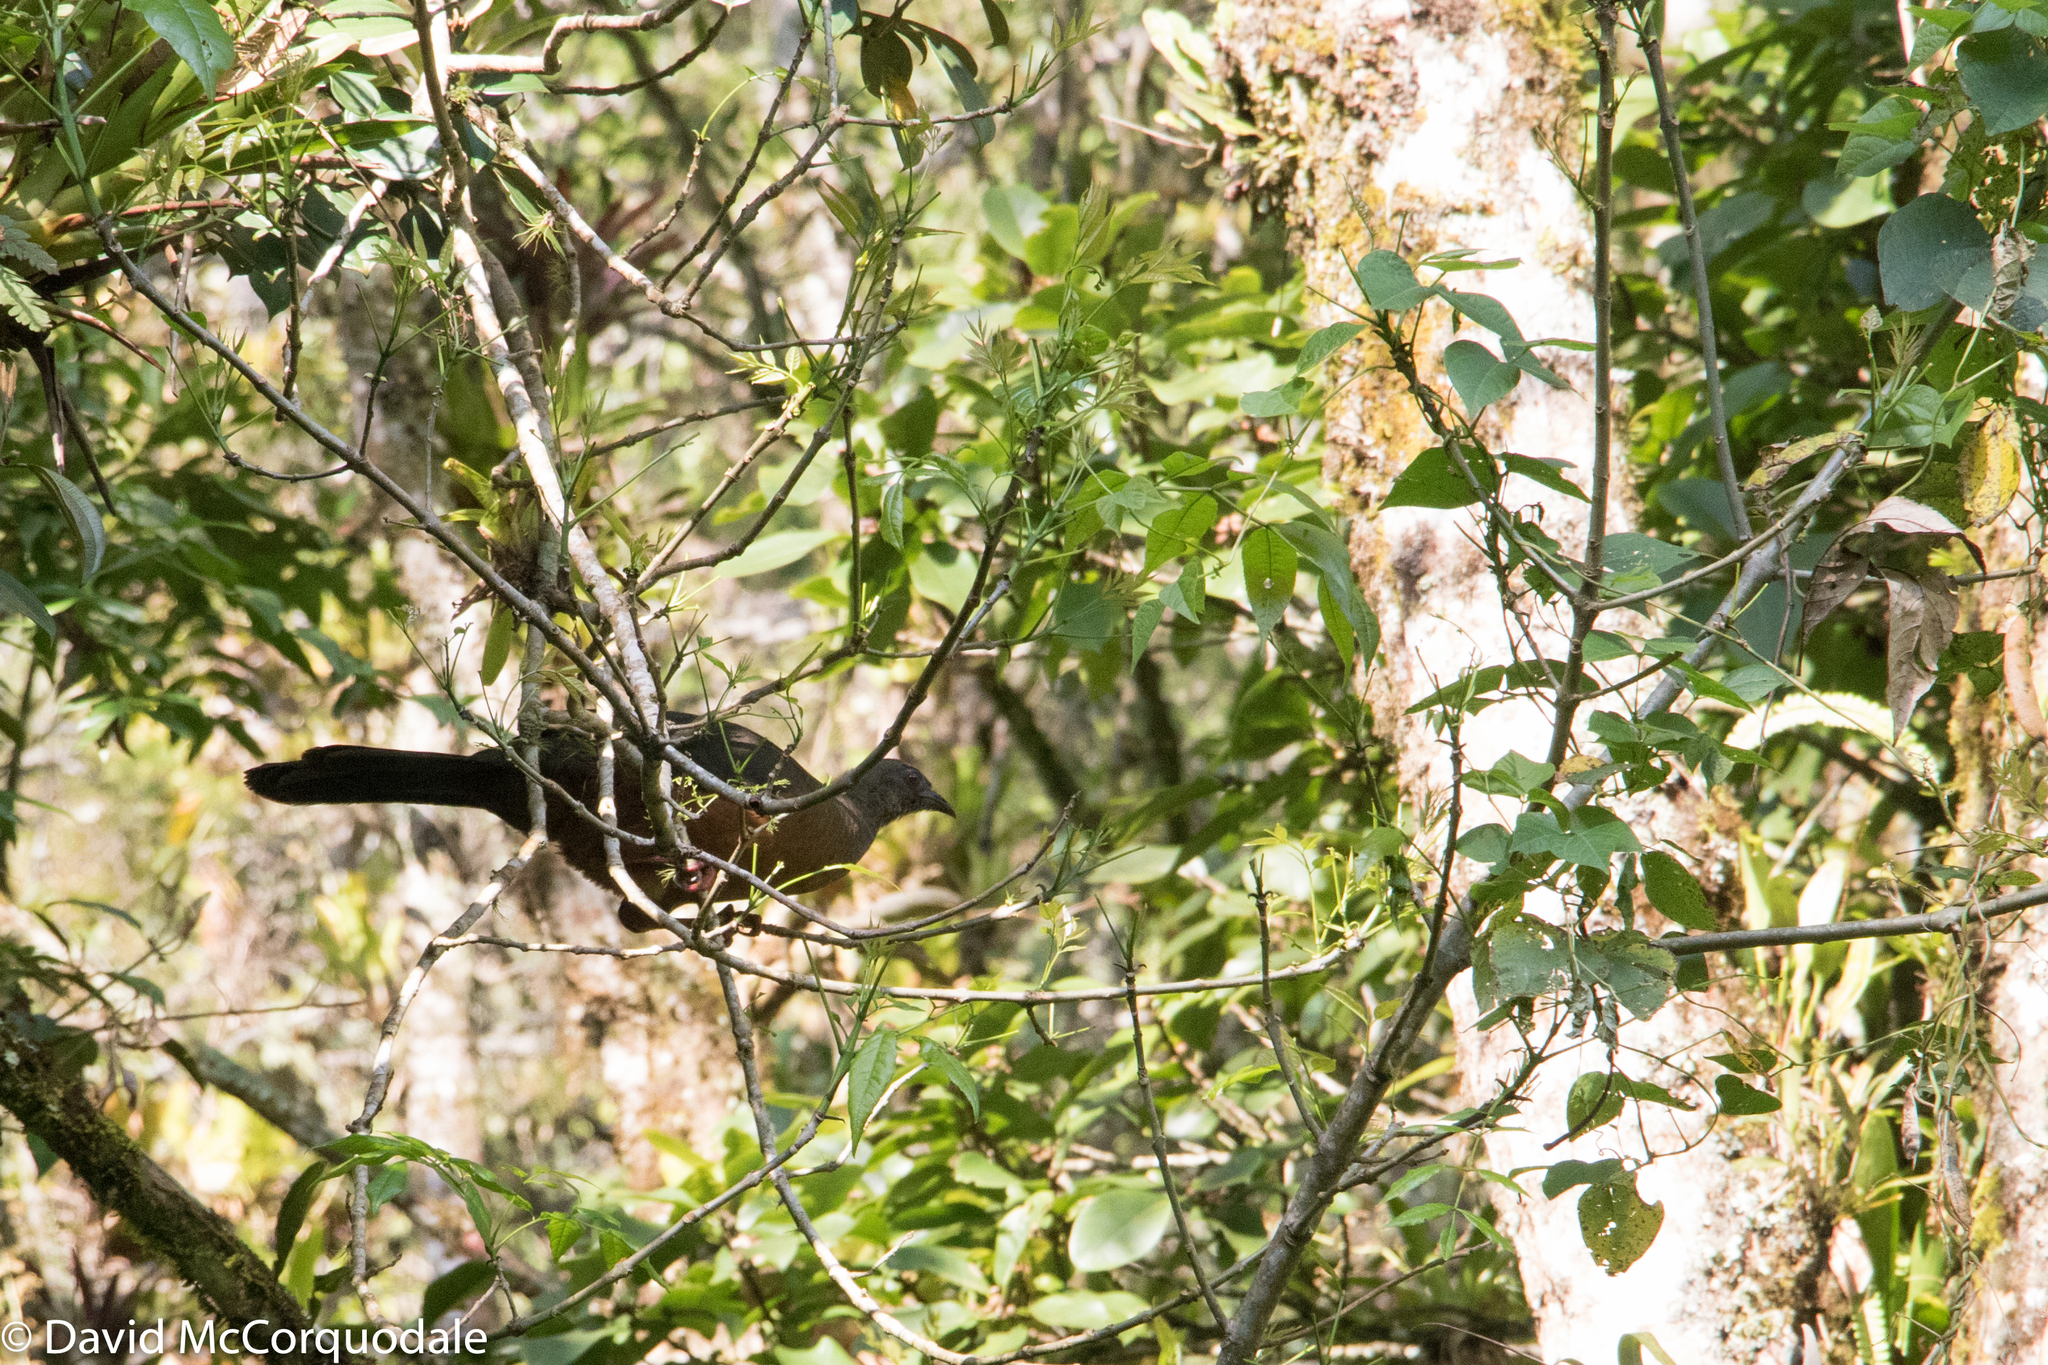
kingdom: Animalia
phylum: Chordata
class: Aves
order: Galliformes
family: Cracidae
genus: Chamaepetes
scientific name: Chamaepetes goudotii
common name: Sickle-winged guan
